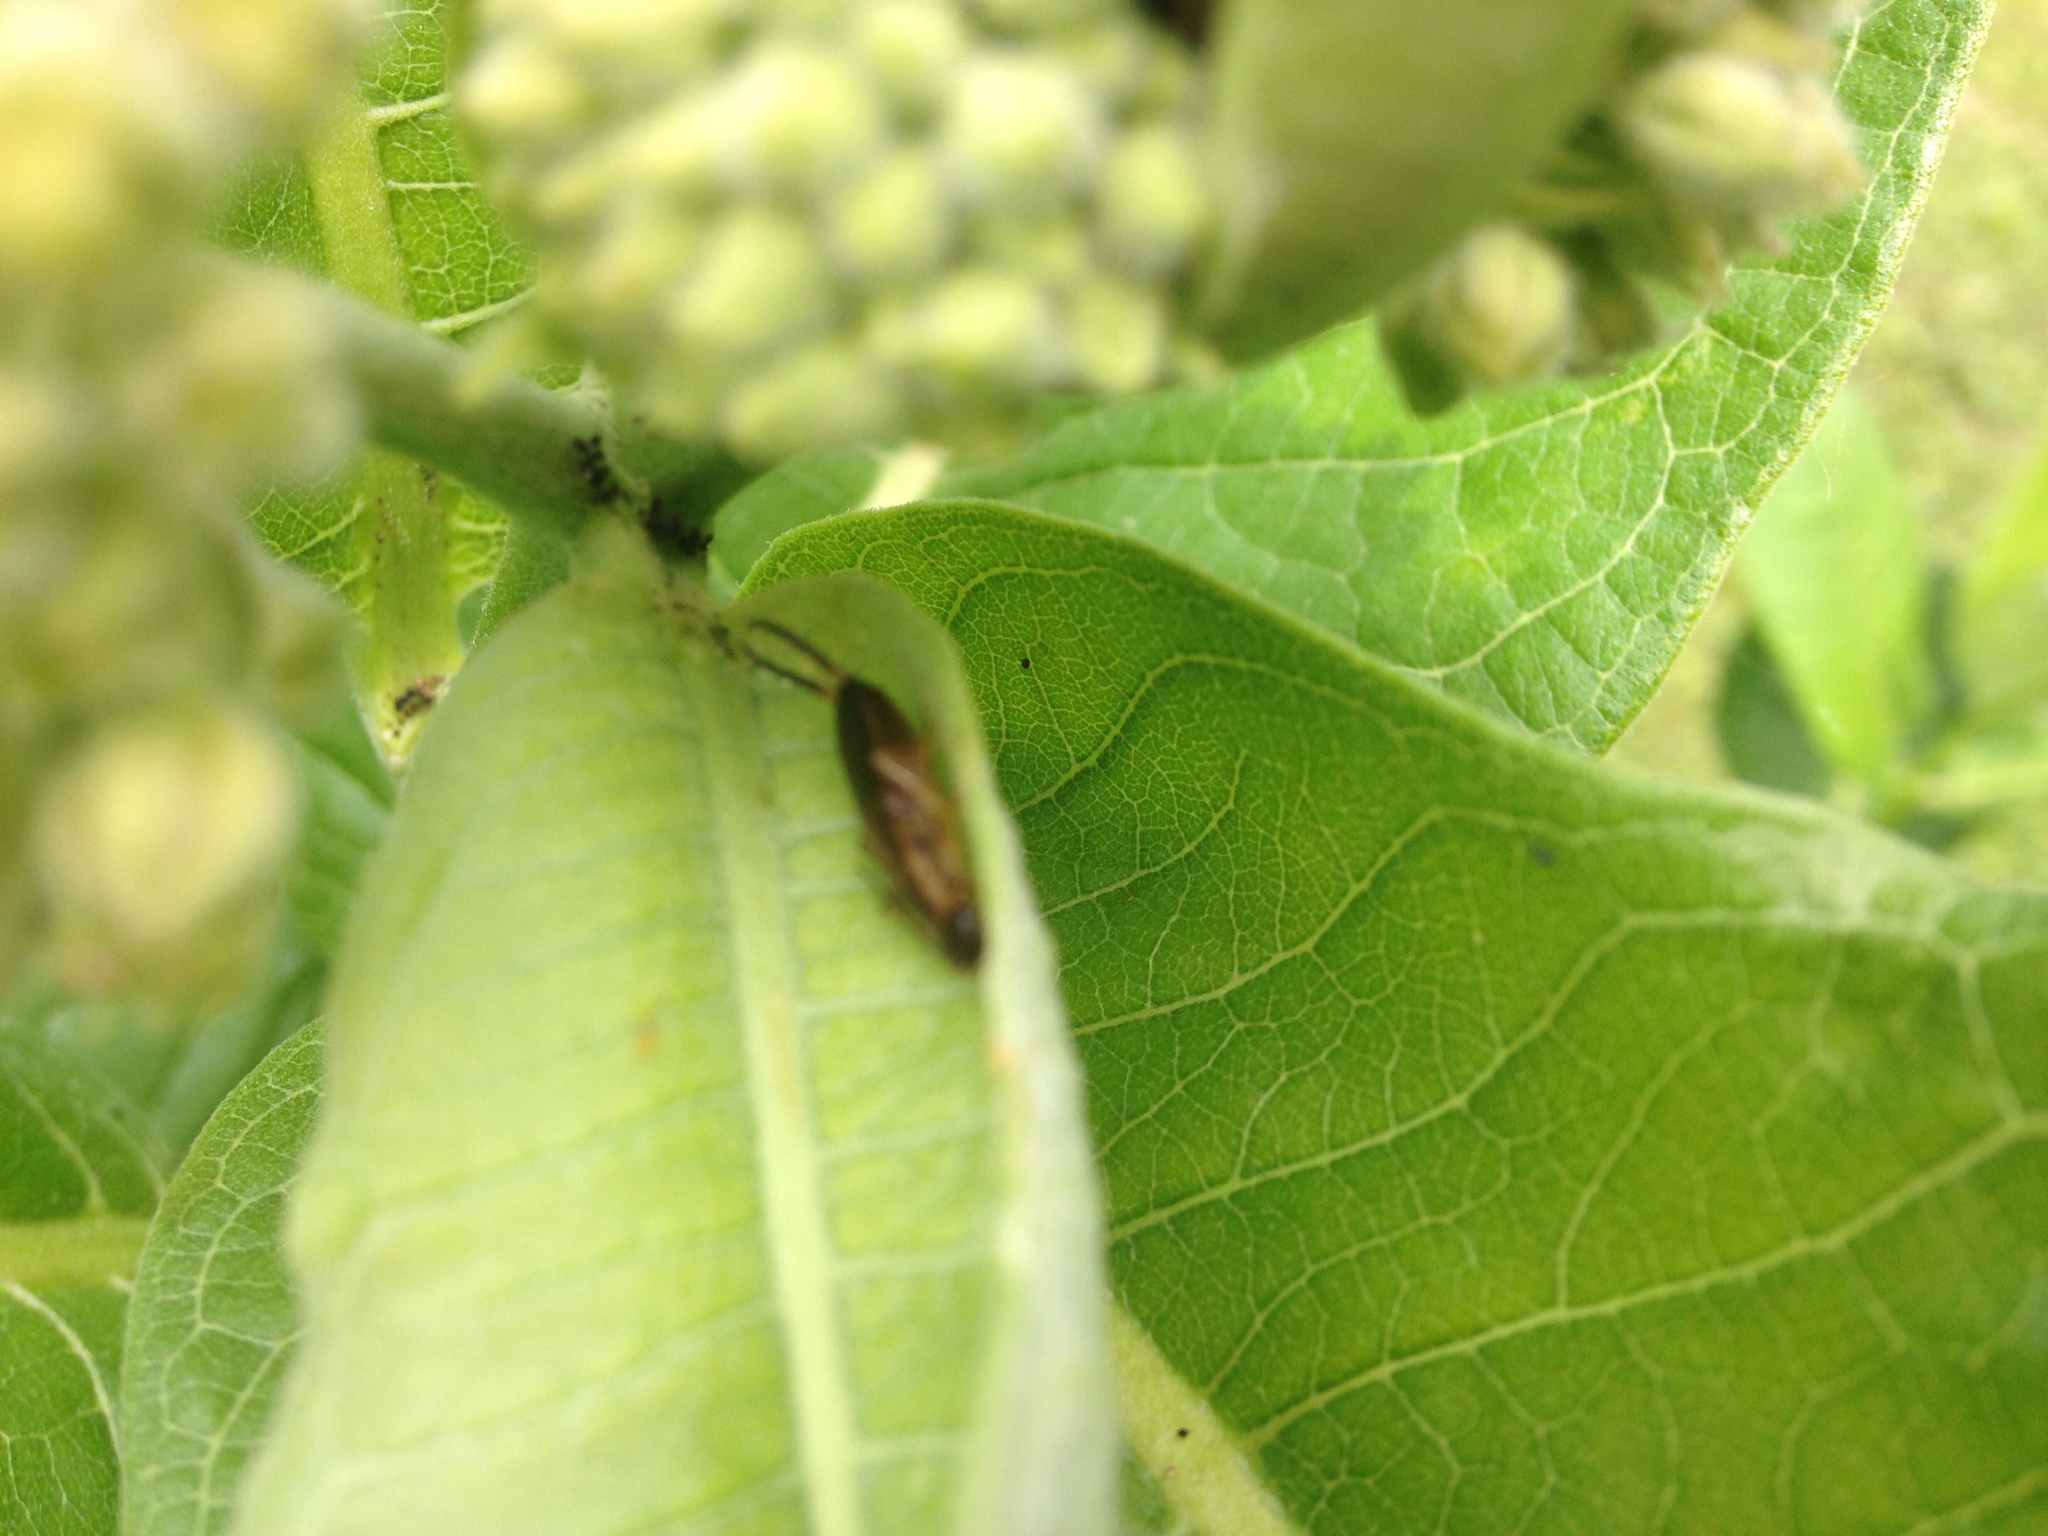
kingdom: Animalia
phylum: Arthropoda
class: Insecta
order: Dermaptera
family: Forficulidae
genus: Forficula
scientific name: Forficula
